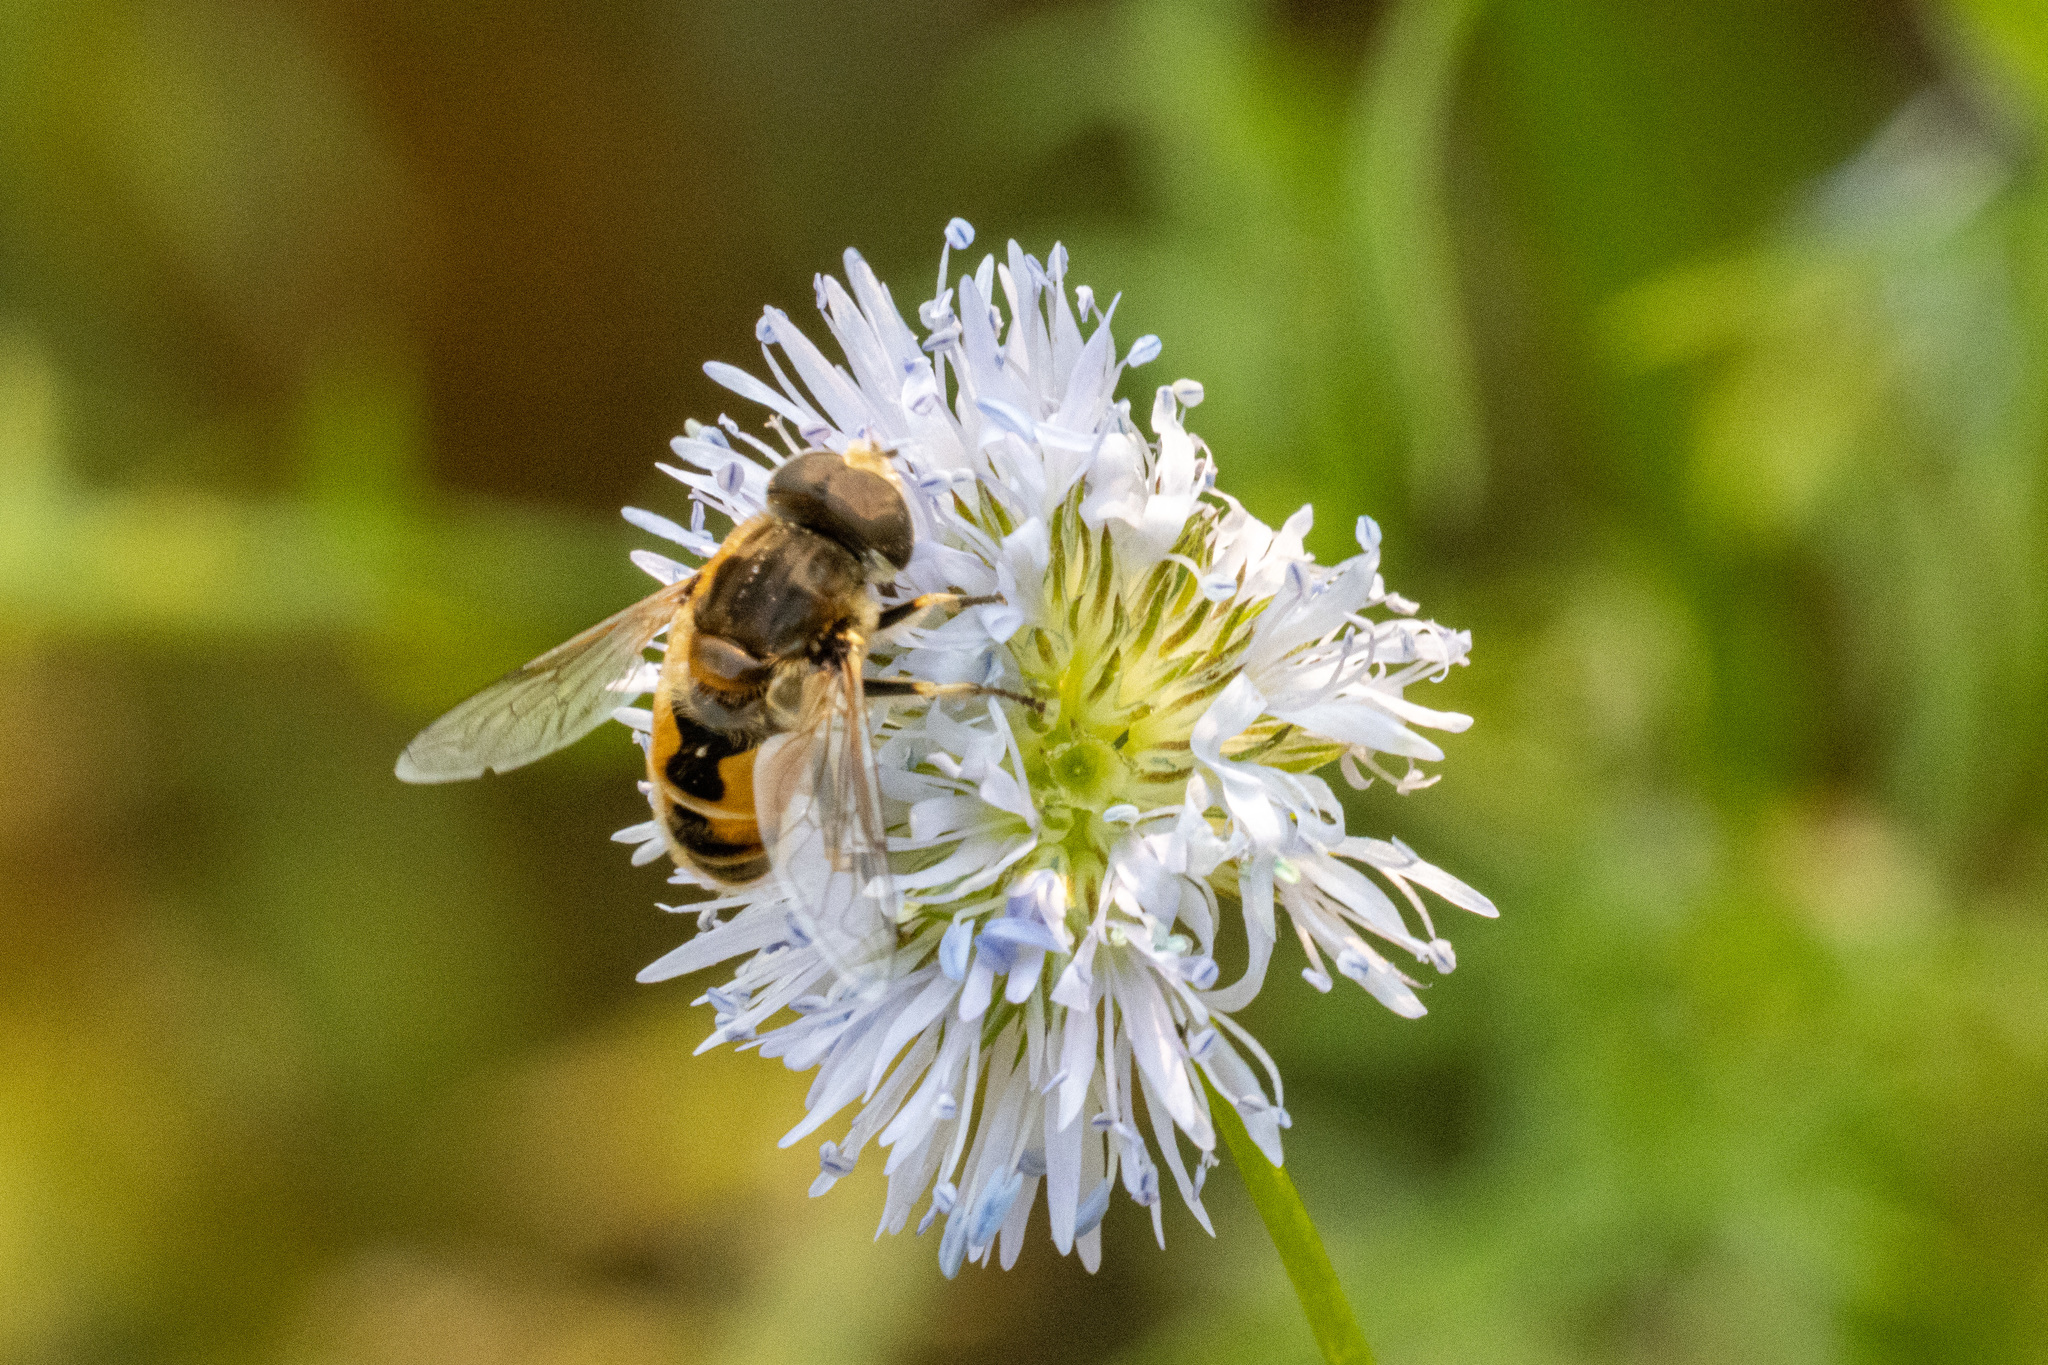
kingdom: Animalia
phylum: Arthropoda
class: Insecta
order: Diptera
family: Syrphidae
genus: Eristalis
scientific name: Eristalis arbustorum
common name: Hover fly
